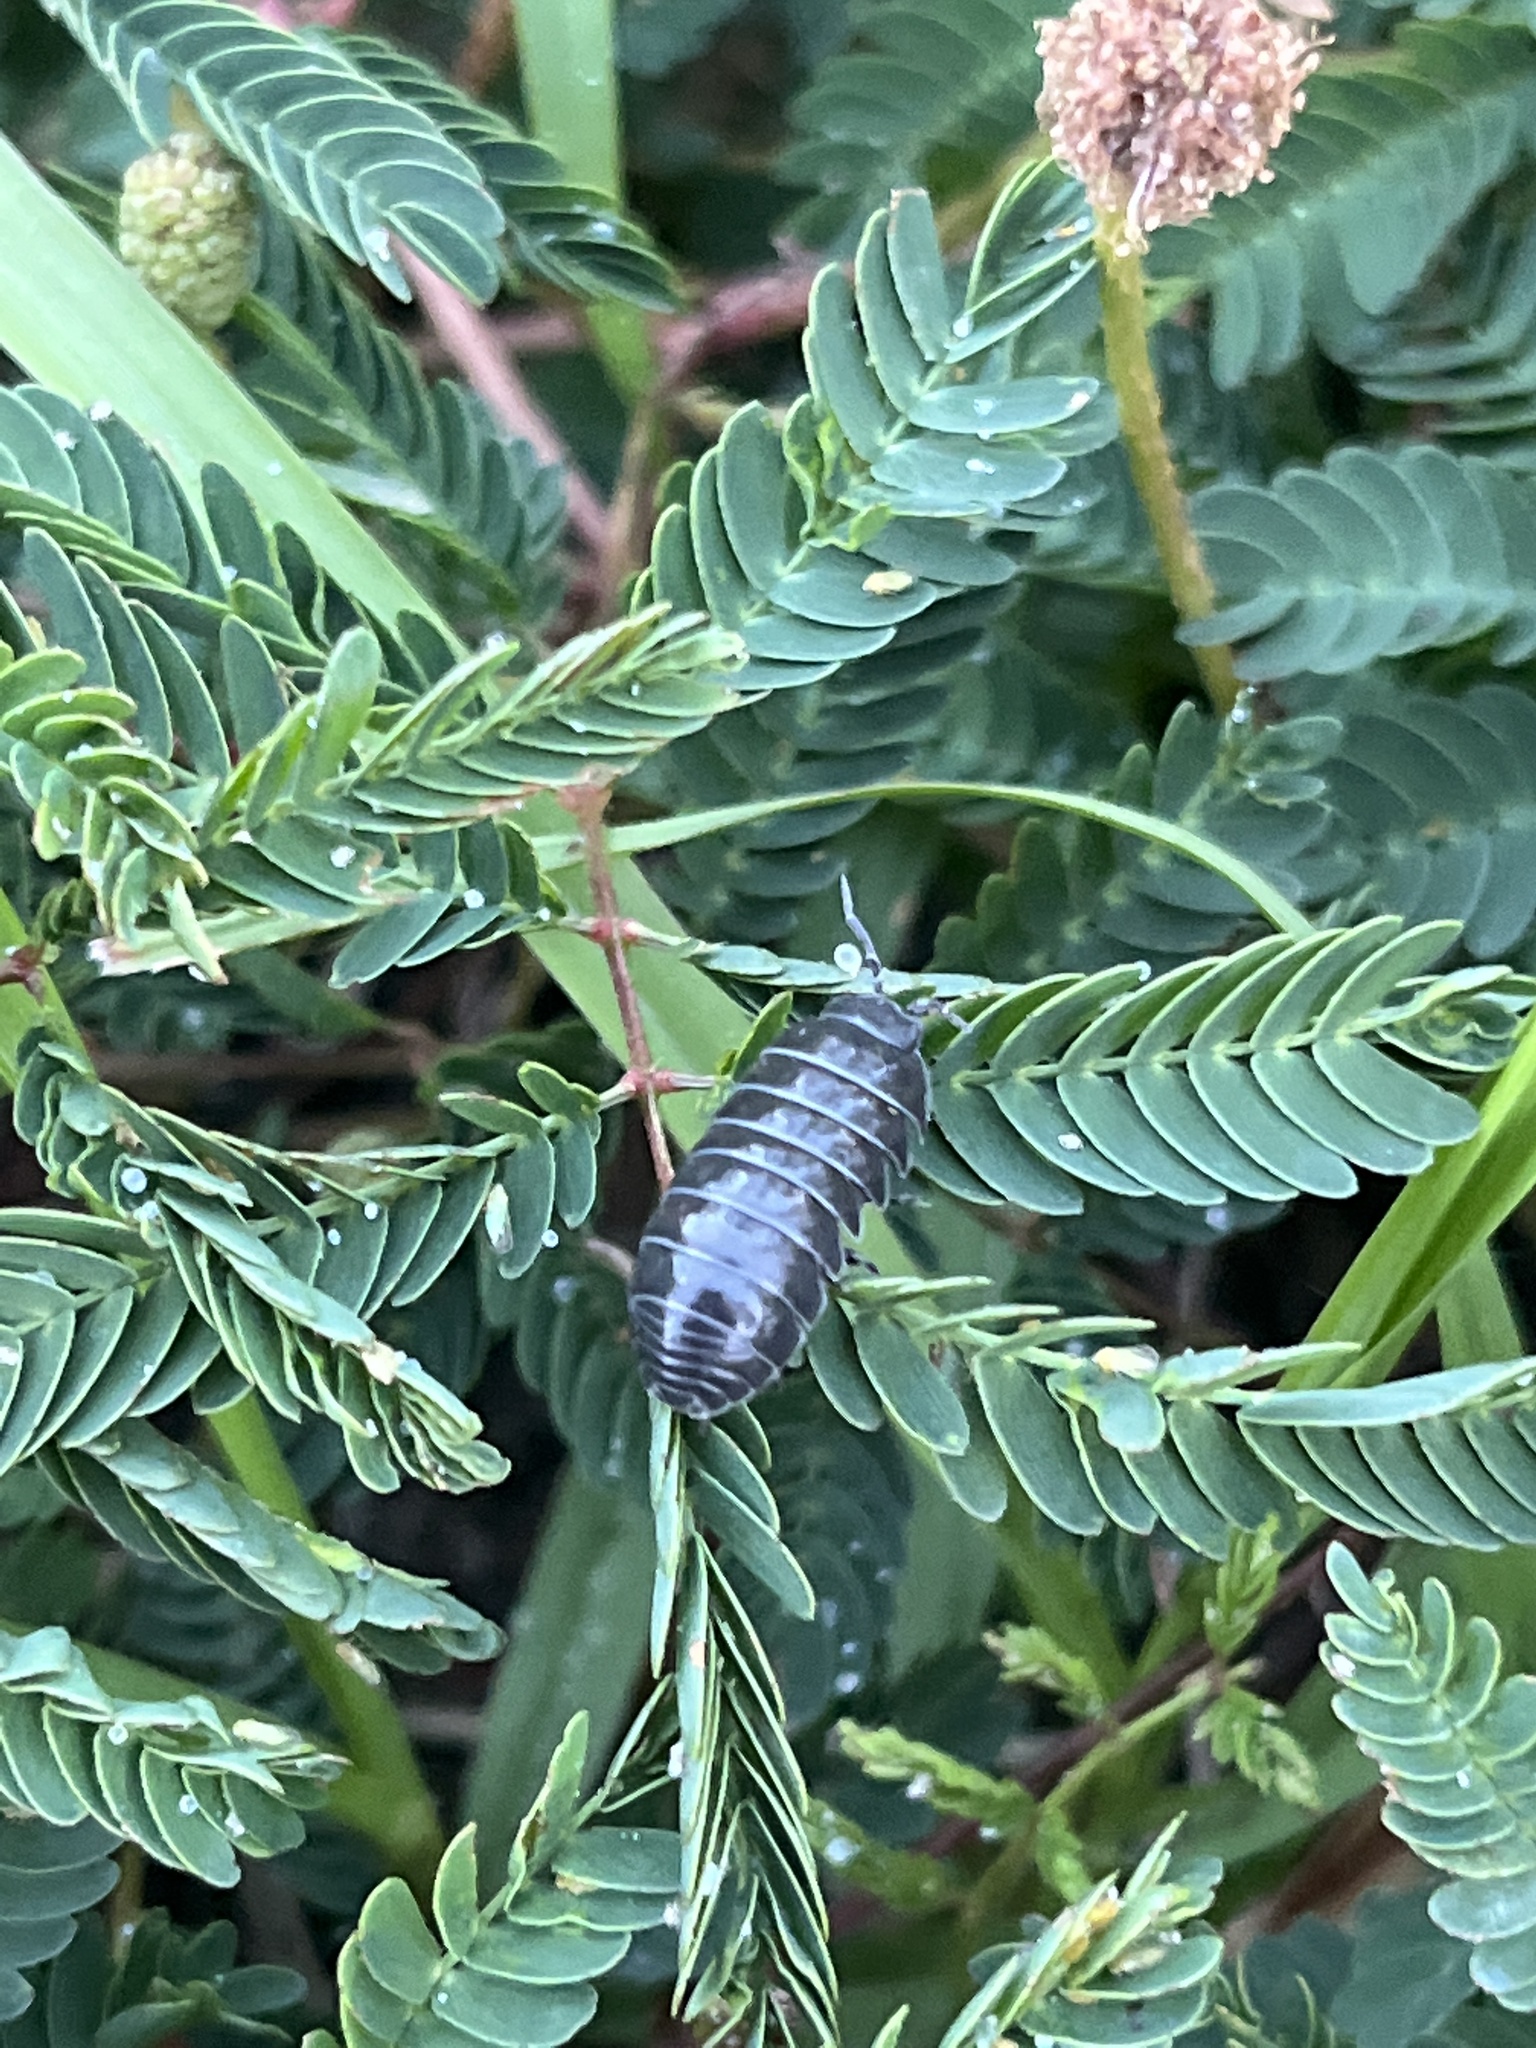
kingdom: Animalia
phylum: Arthropoda
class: Malacostraca
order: Isopoda
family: Armadillidiidae
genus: Armadillidium
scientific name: Armadillidium vulgare
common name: Common pill woodlouse
